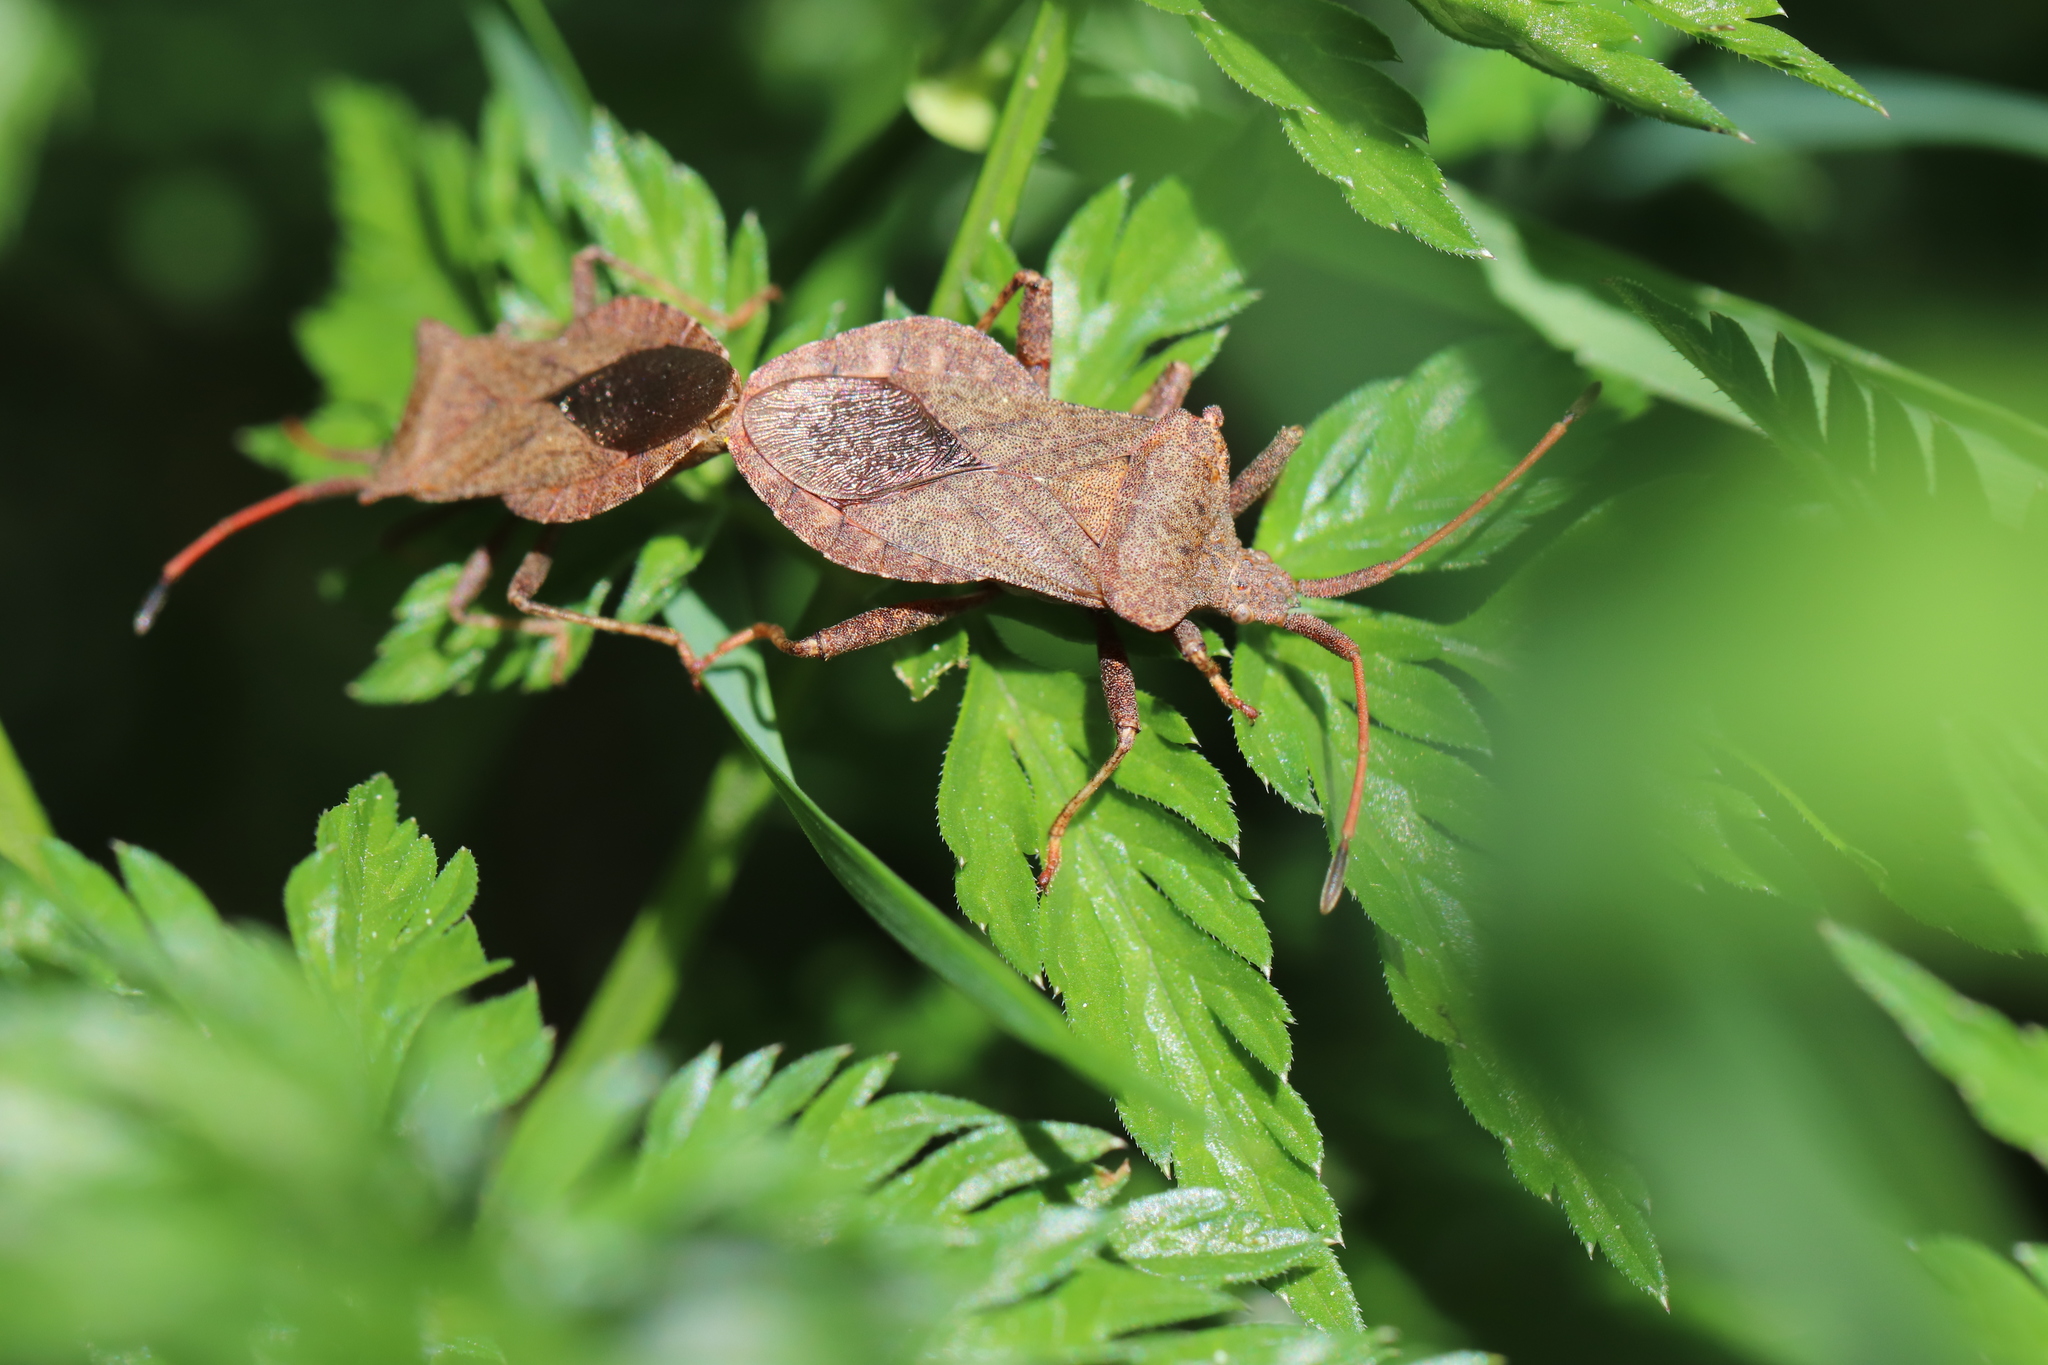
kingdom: Animalia
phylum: Arthropoda
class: Insecta
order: Hemiptera
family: Coreidae
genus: Coreus
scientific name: Coreus marginatus
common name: Dock bug
